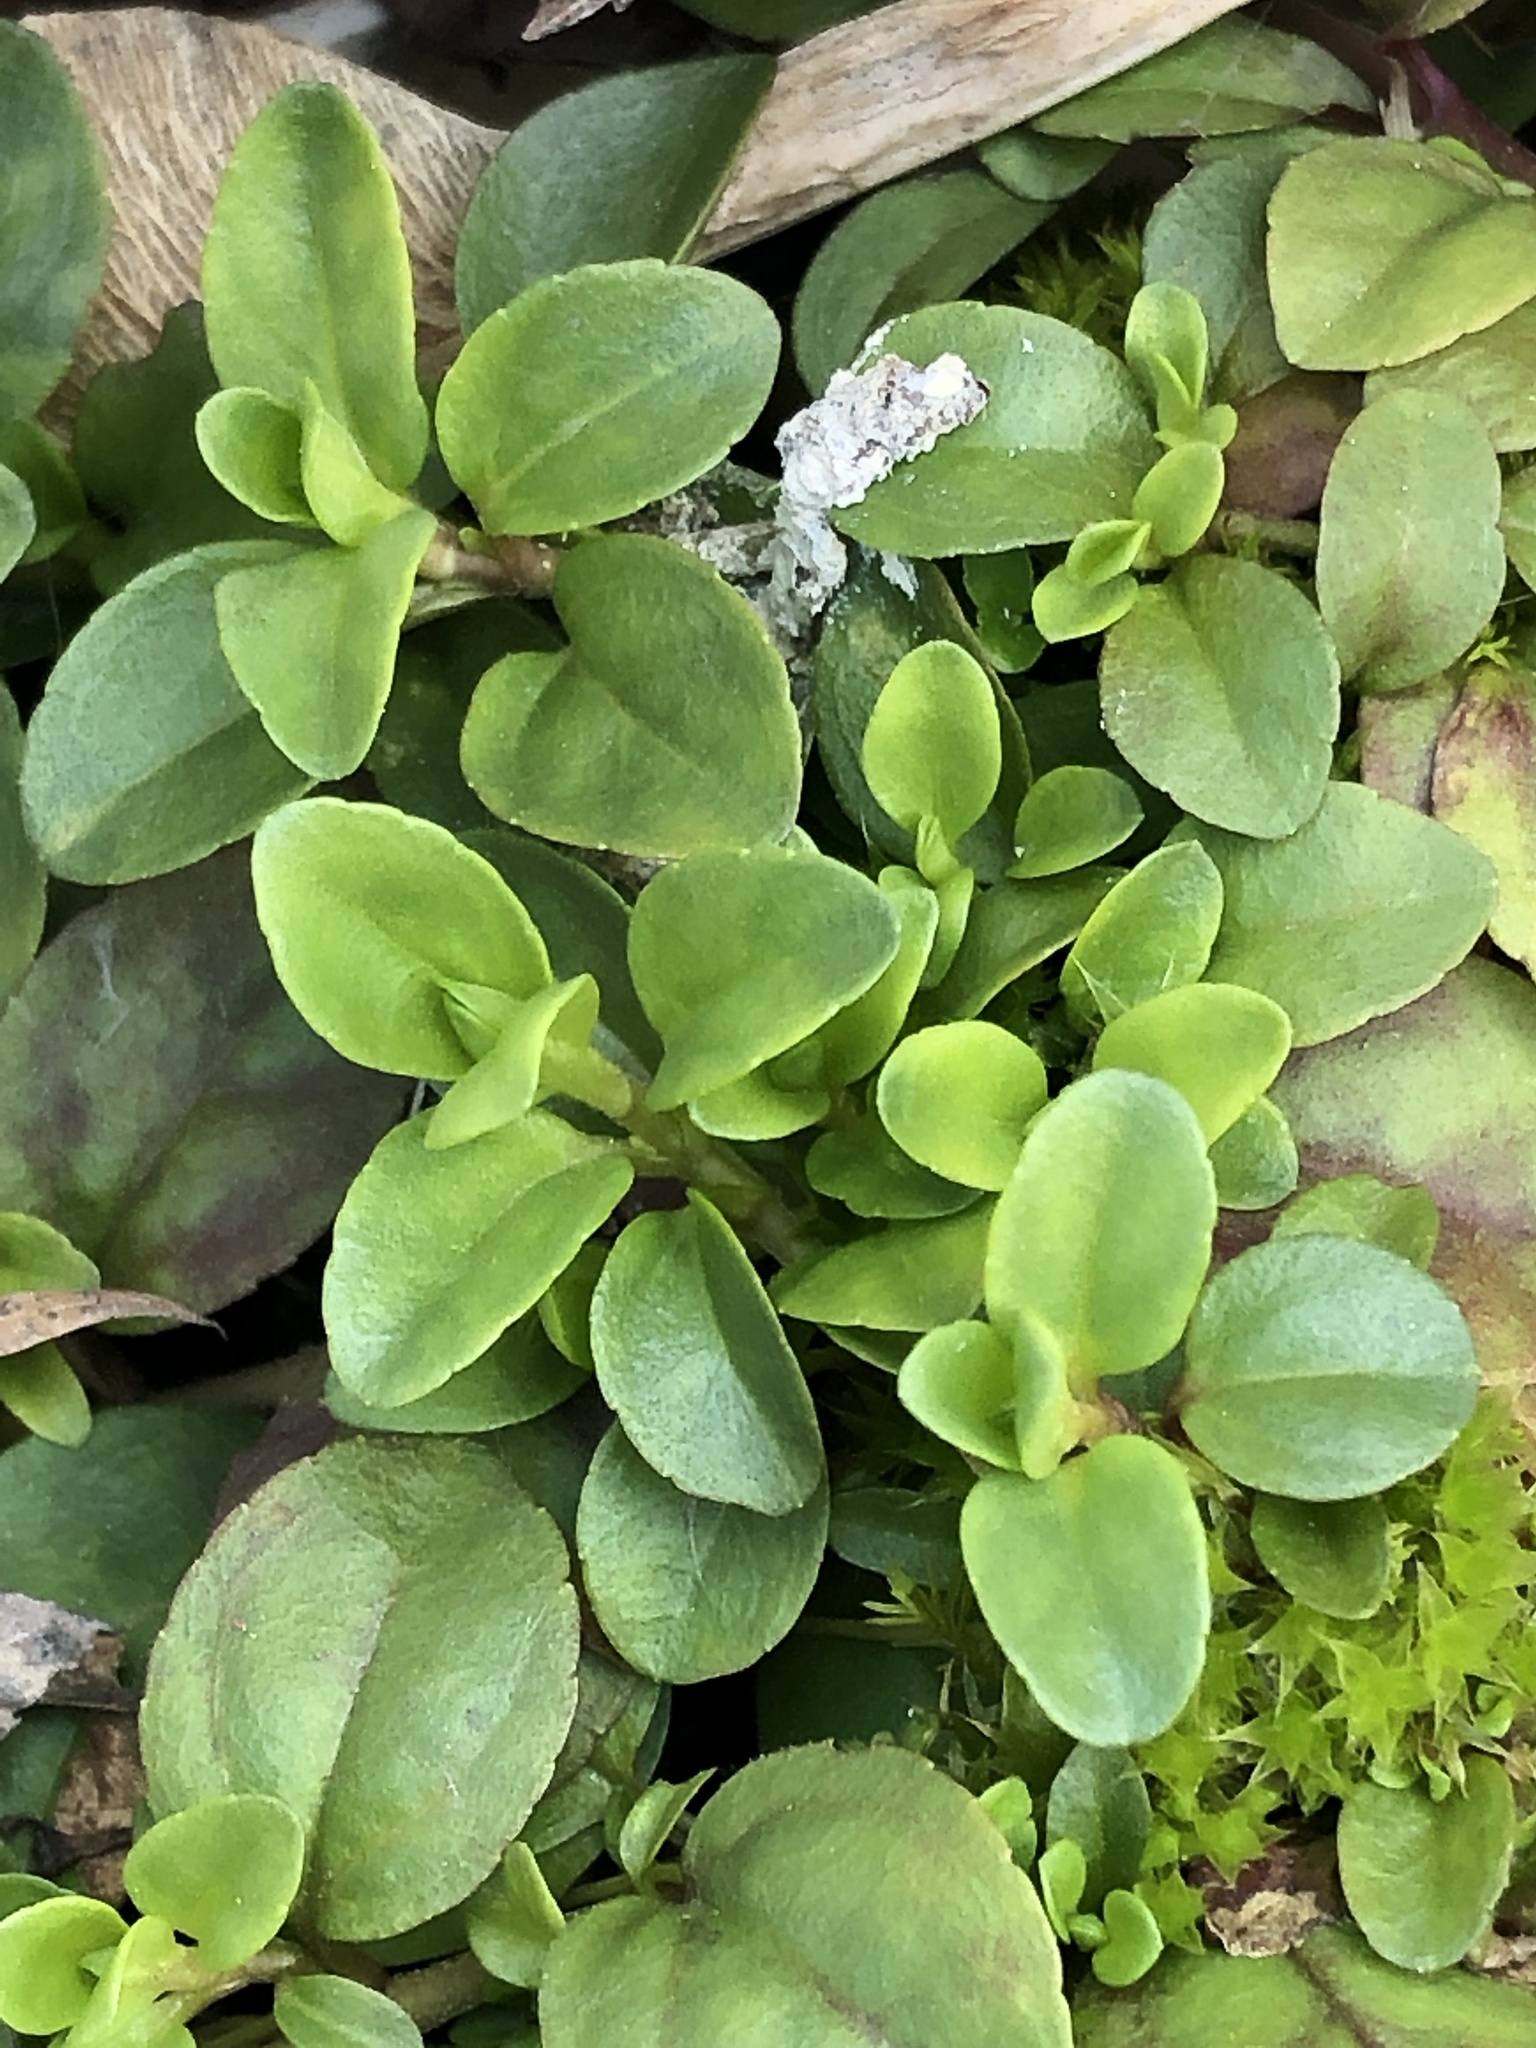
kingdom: Plantae
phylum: Tracheophyta
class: Magnoliopsida
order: Lamiales
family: Plantaginaceae
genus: Veronica
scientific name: Veronica serpyllifolia
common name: Thyme-leaved speedwell
